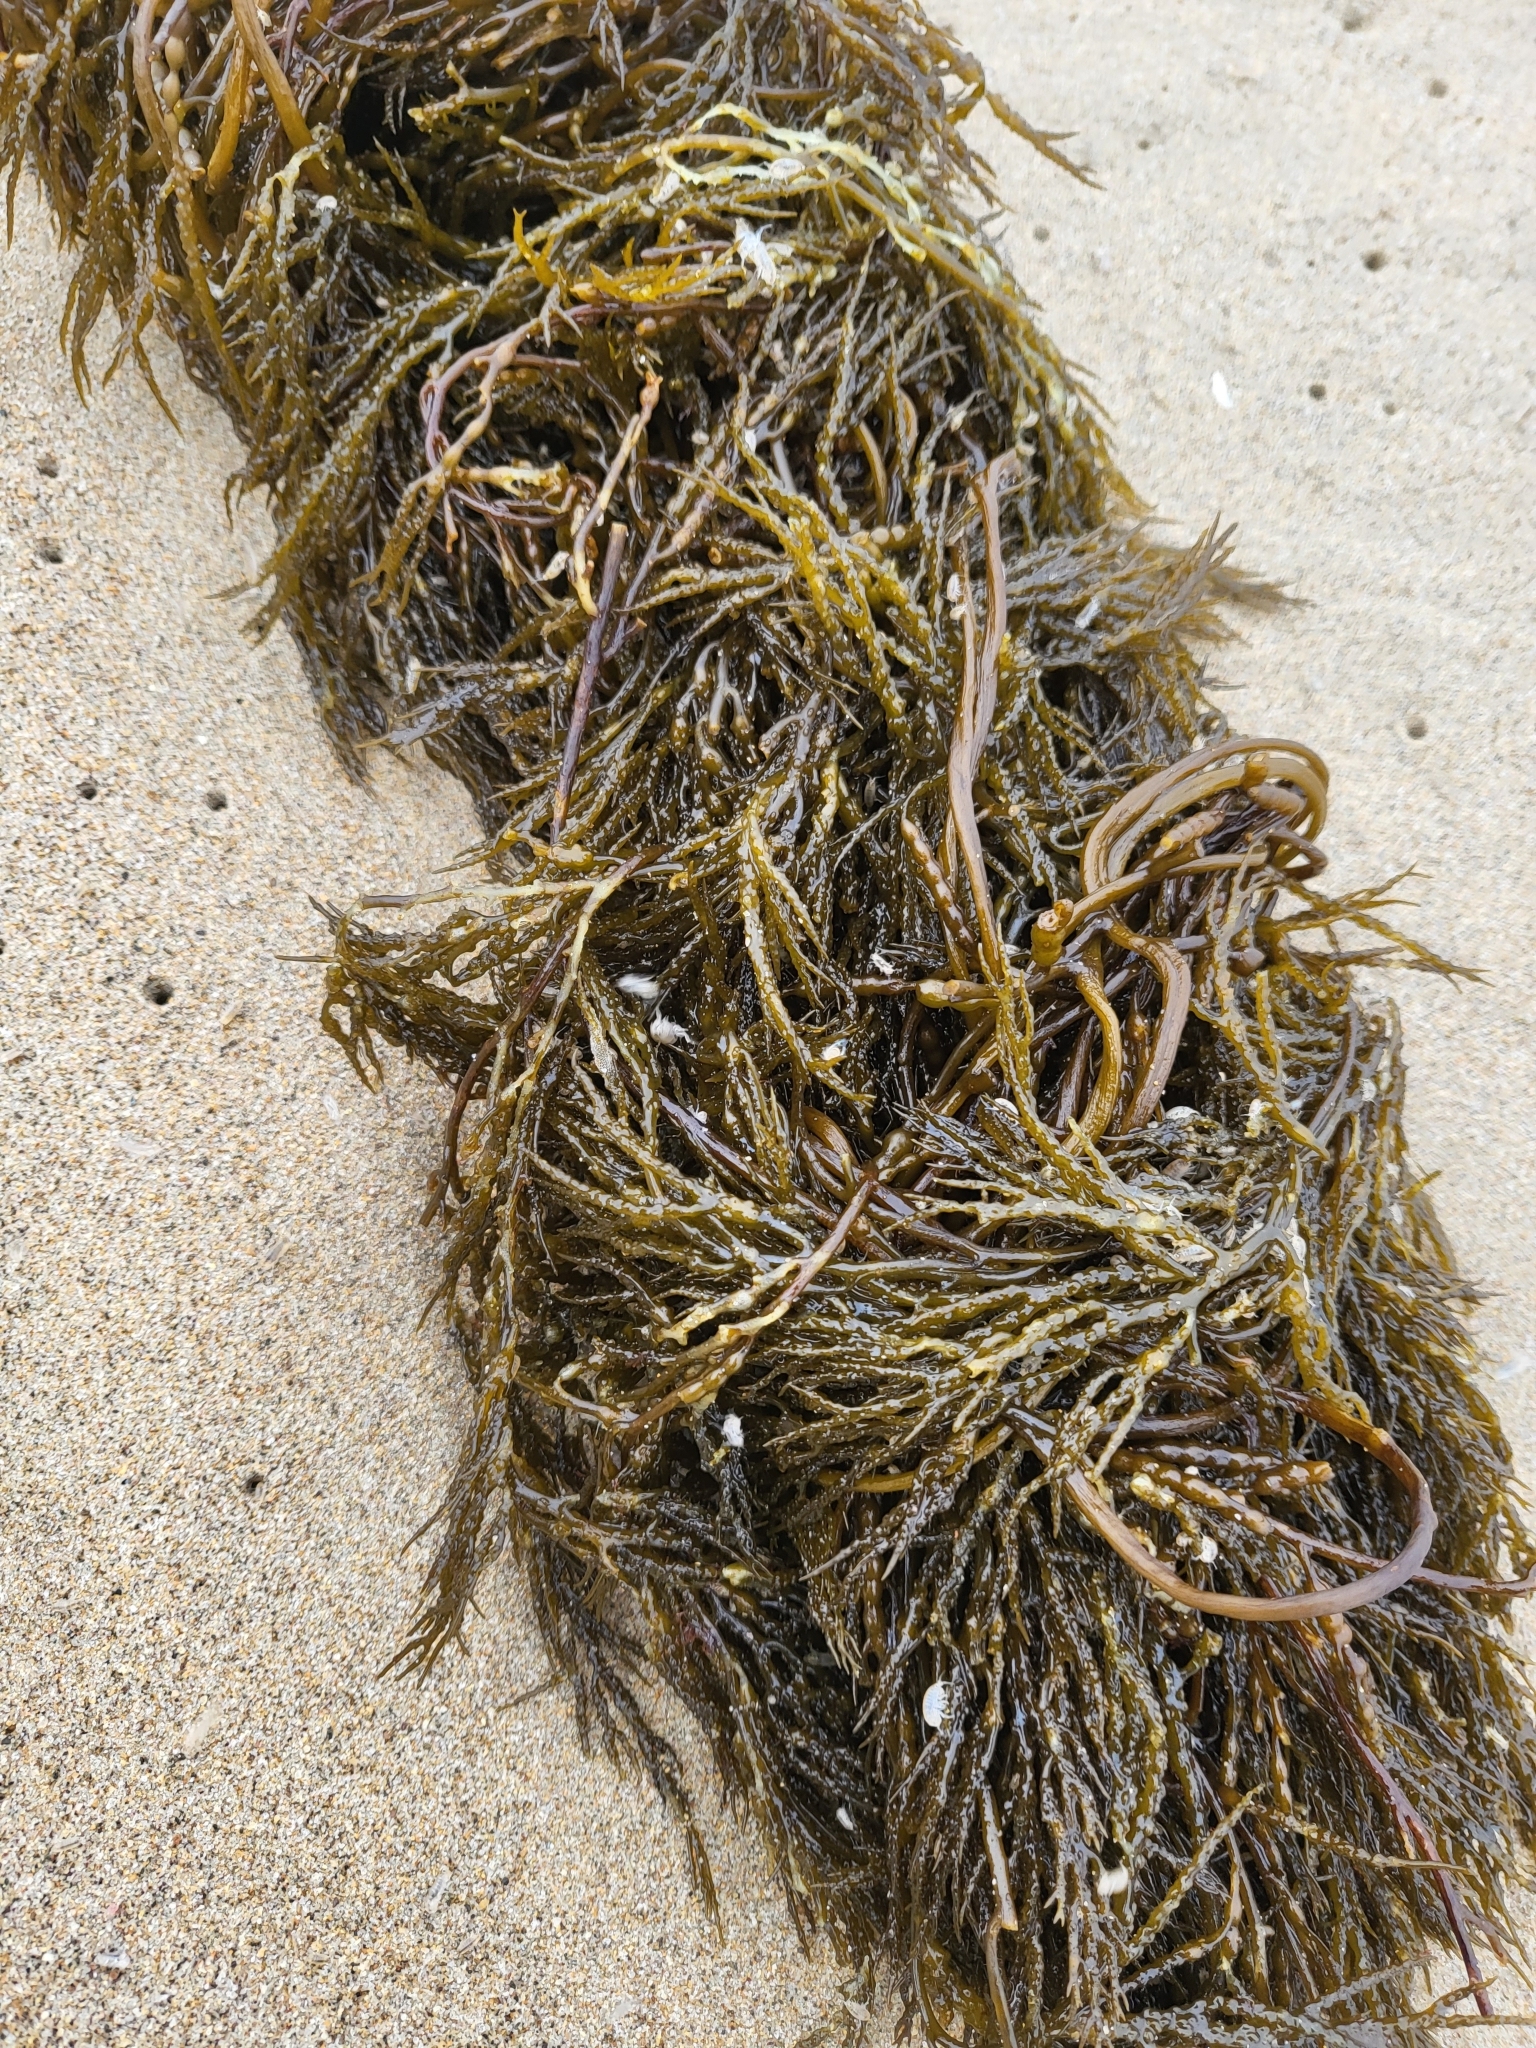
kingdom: Chromista
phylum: Ochrophyta
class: Phaeophyceae
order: Fucales
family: Sargassaceae
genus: Stephanocystis
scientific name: Stephanocystis
